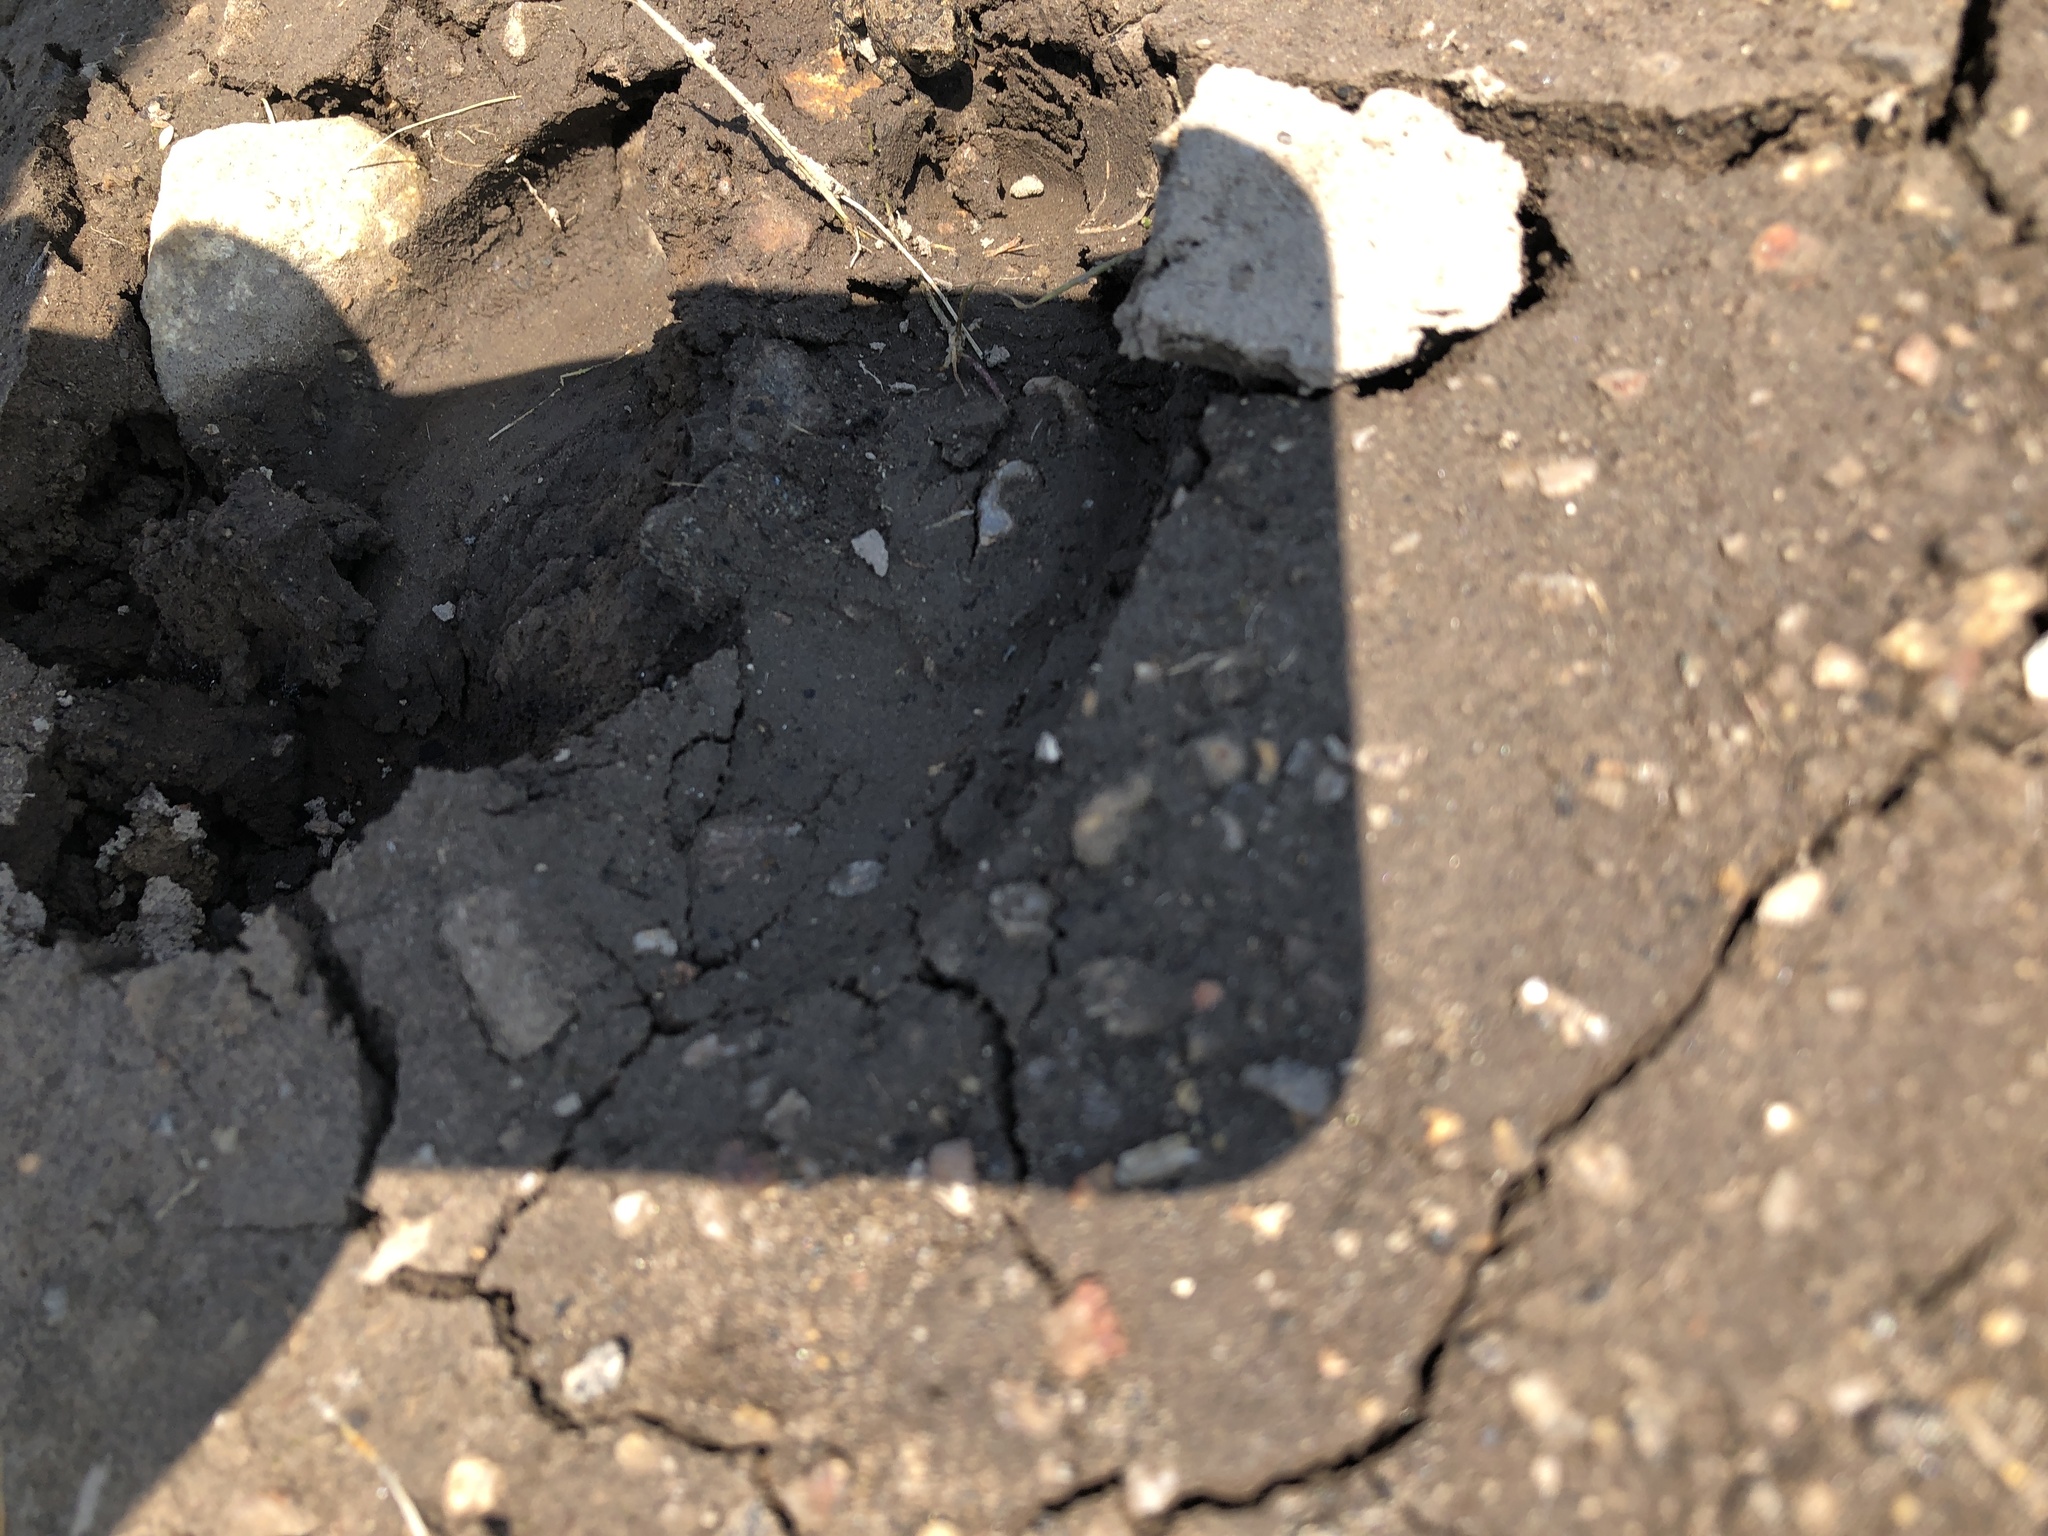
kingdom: Animalia
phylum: Chordata
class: Amphibia
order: Anura
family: Bufonidae
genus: Anaxyrus
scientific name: Anaxyrus boreas
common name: Western toad
